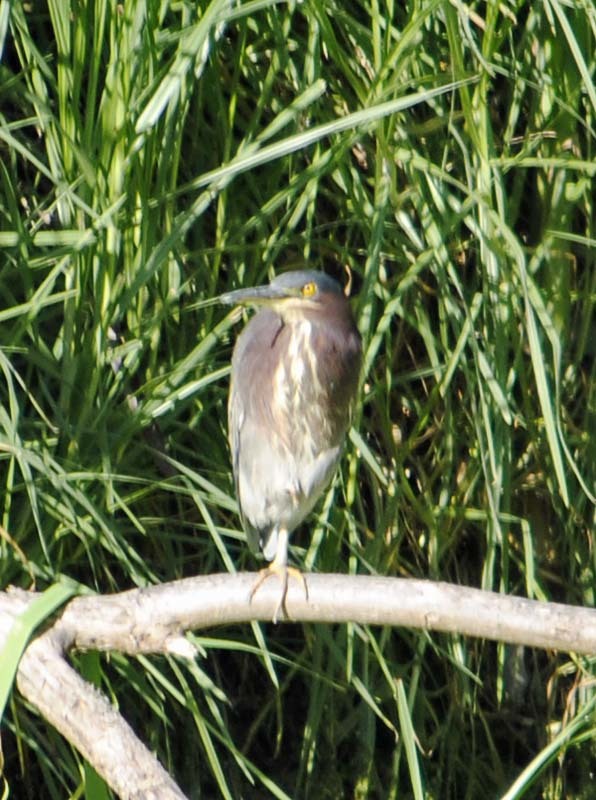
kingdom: Animalia
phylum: Chordata
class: Aves
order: Pelecaniformes
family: Ardeidae
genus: Butorides
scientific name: Butorides virescens
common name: Green heron
